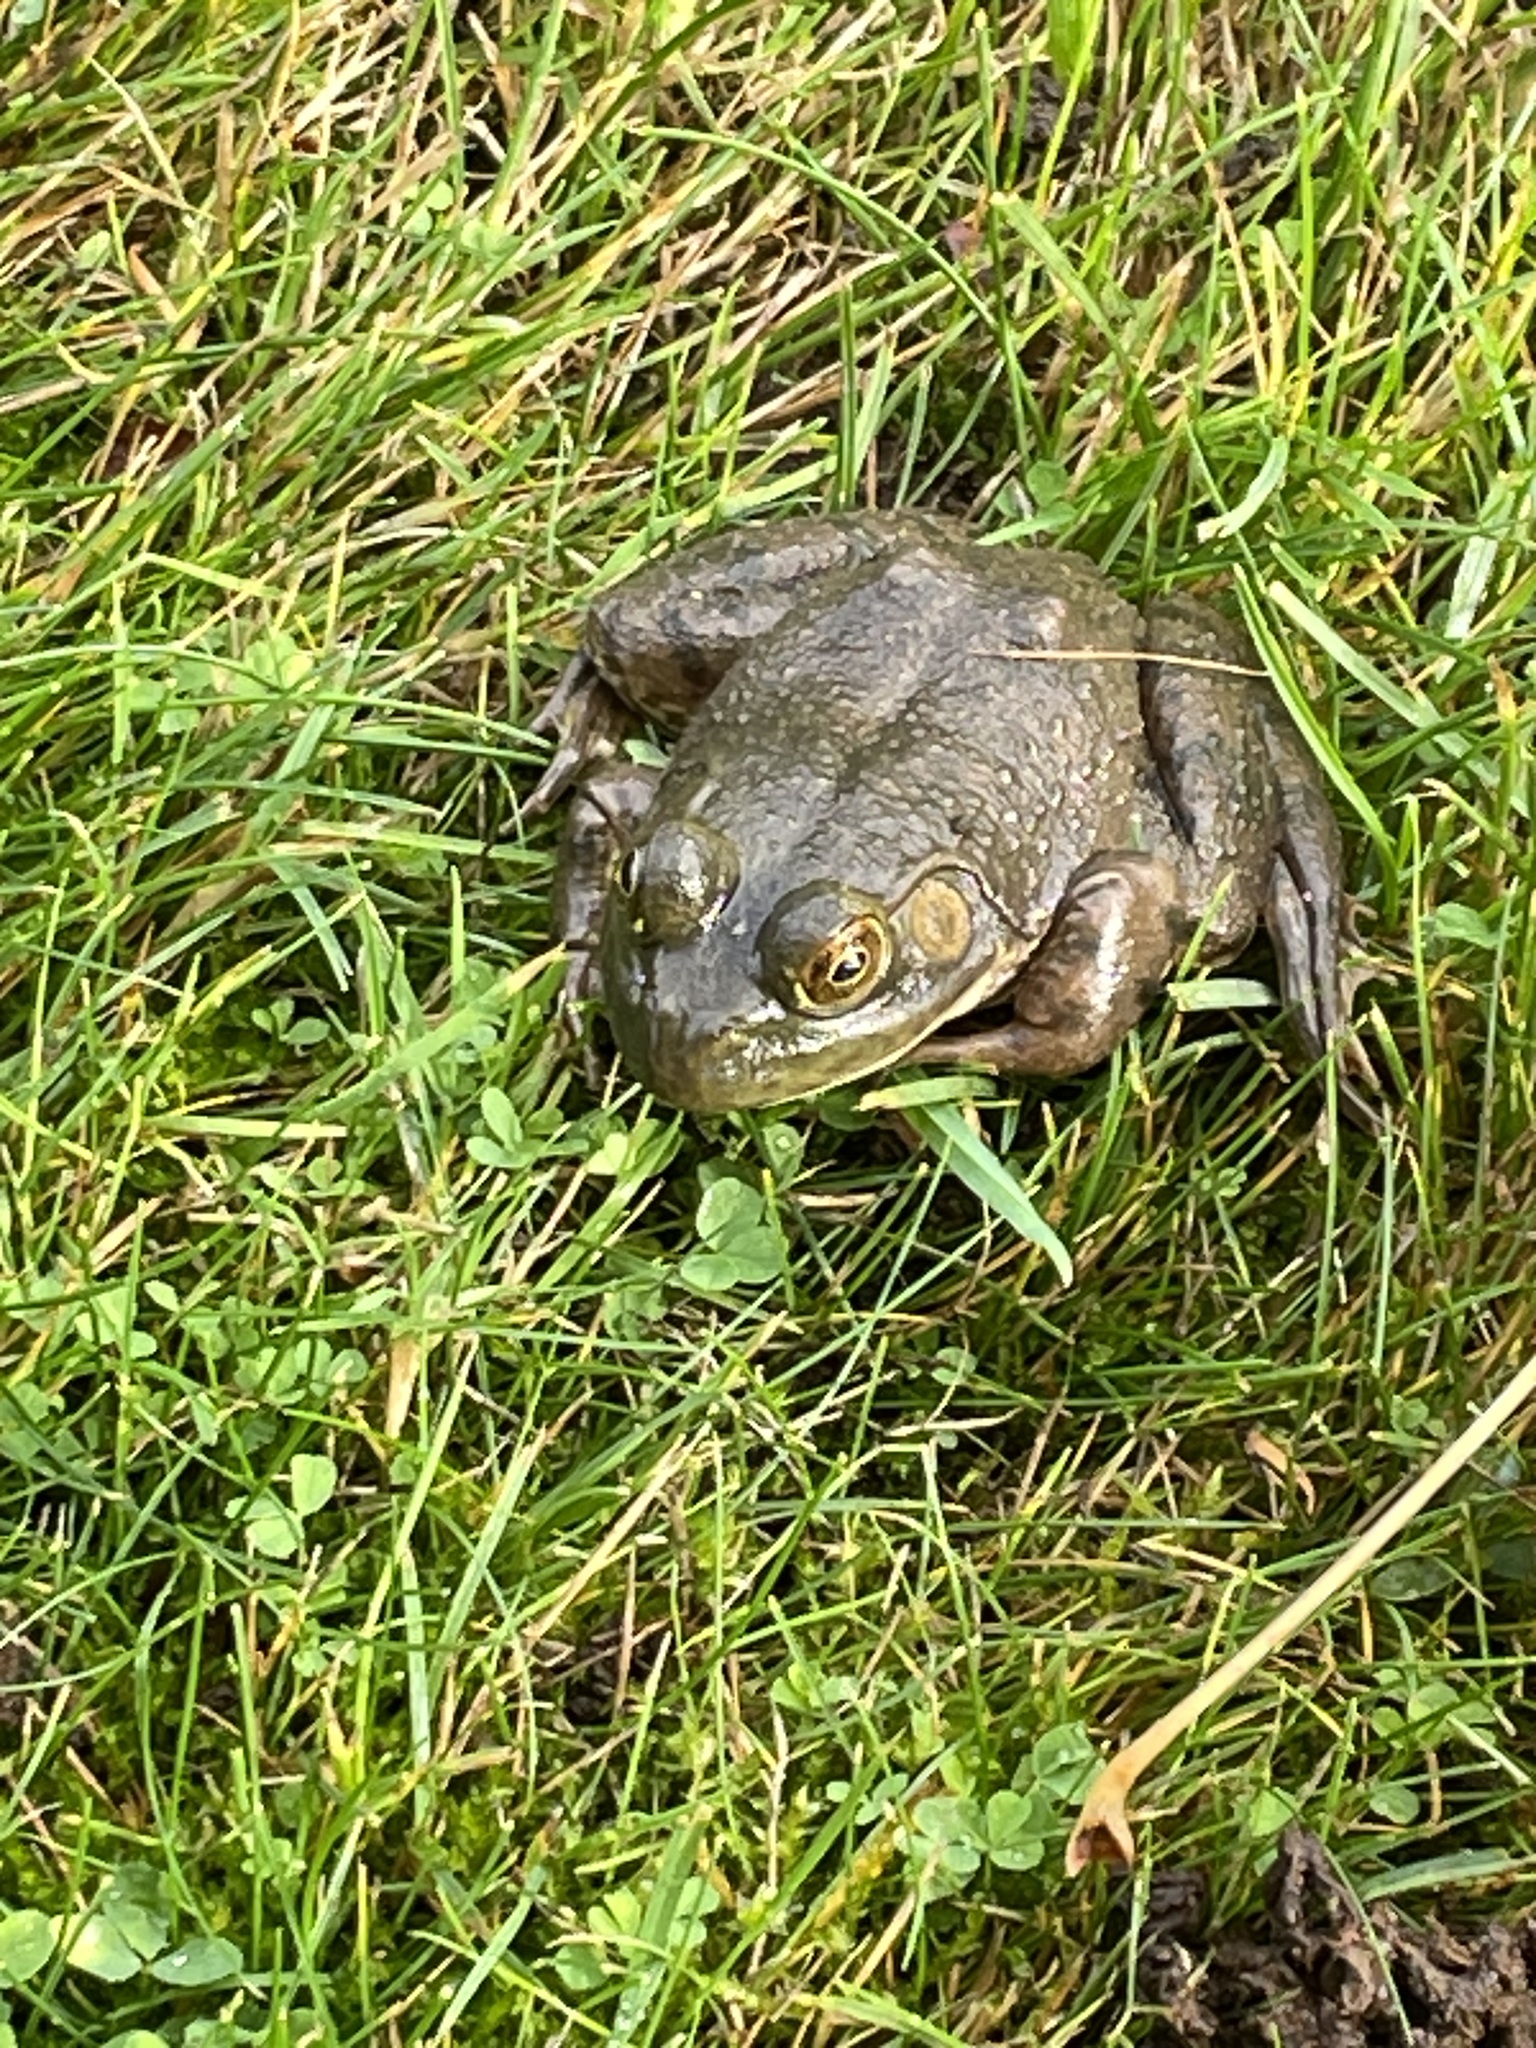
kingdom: Animalia
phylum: Chordata
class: Amphibia
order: Anura
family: Ranidae
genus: Lithobates
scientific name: Lithobates catesbeianus
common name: American bullfrog
